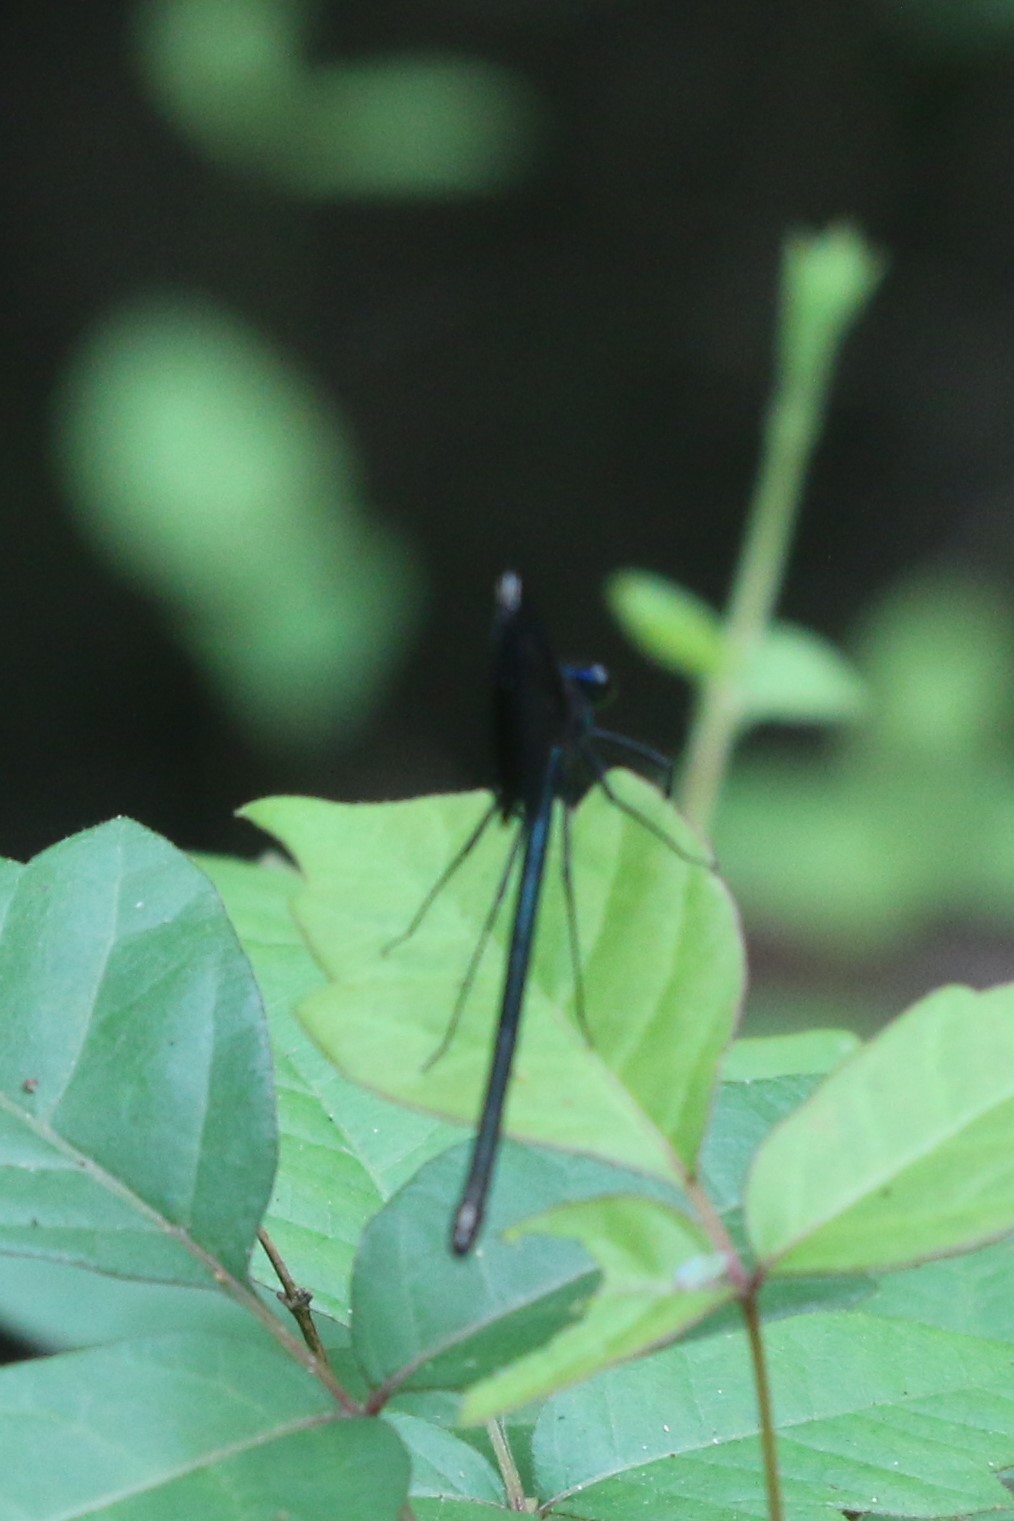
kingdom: Animalia
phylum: Arthropoda
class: Insecta
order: Odonata
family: Calopterygidae
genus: Calopteryx
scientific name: Calopteryx maculata
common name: Ebony jewelwing
